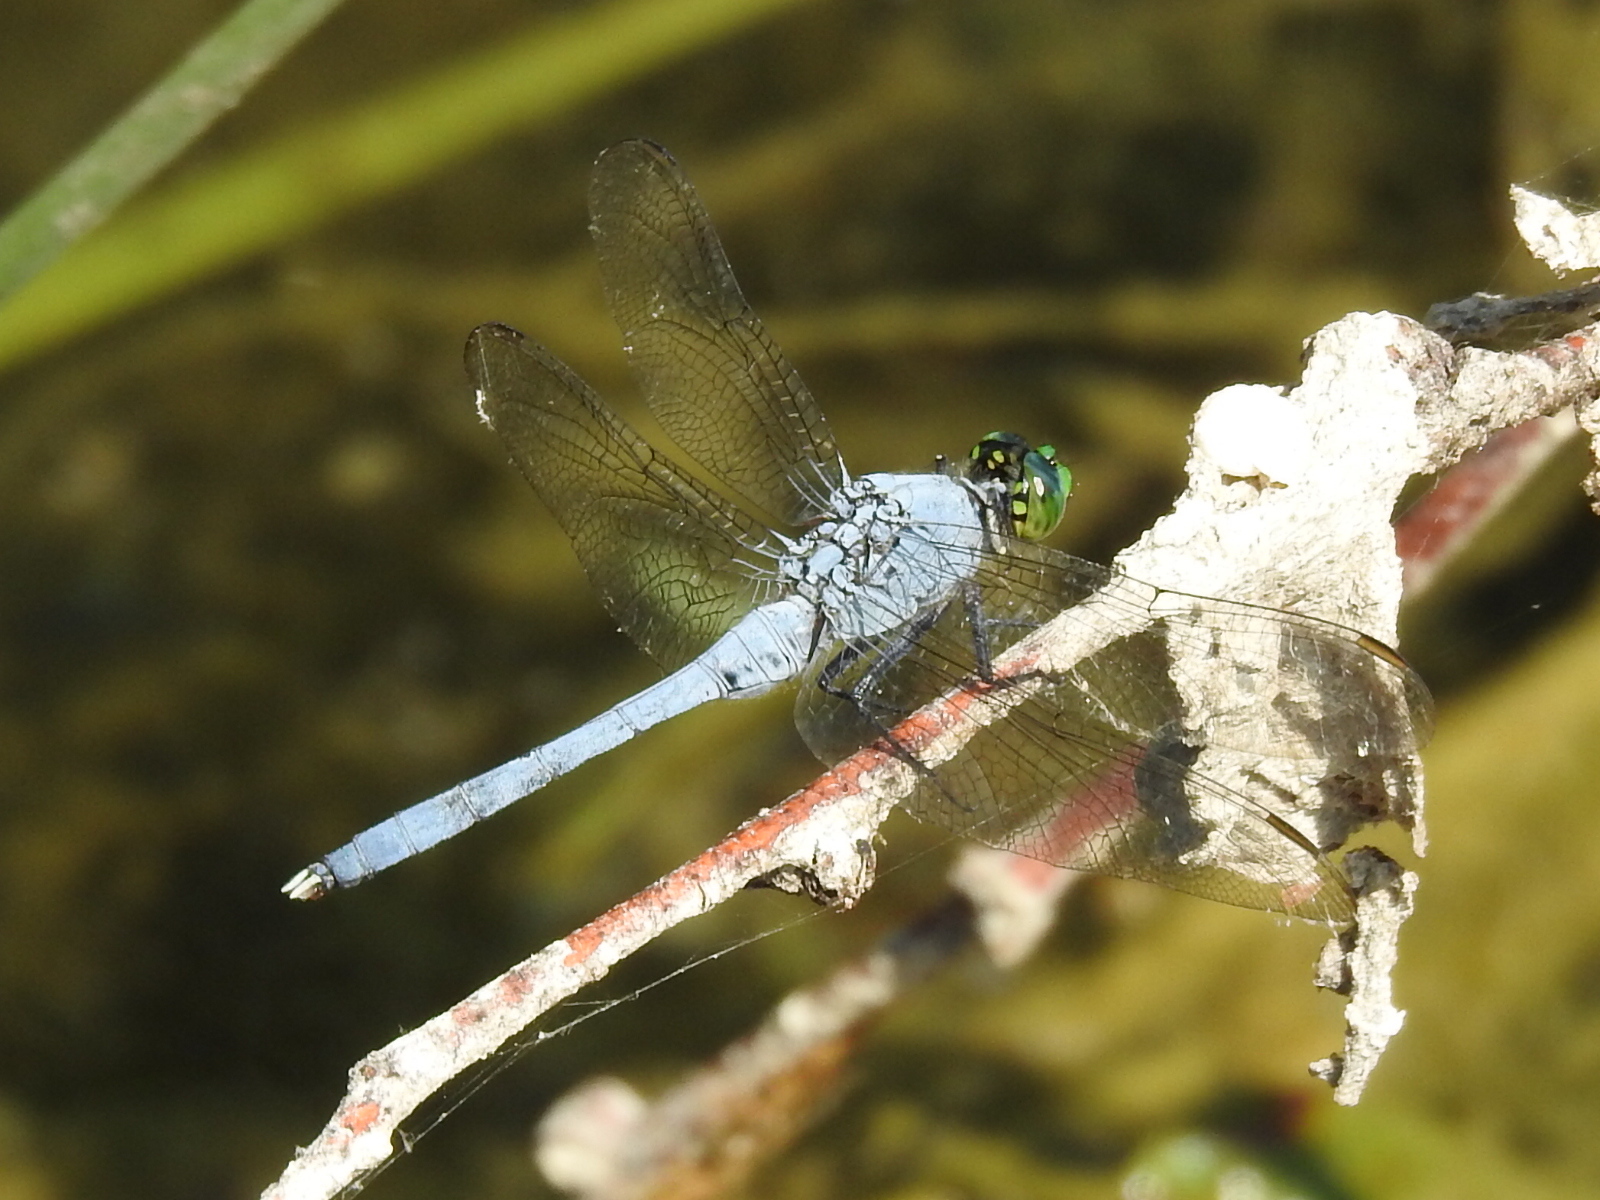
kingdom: Animalia
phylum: Arthropoda
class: Insecta
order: Odonata
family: Libellulidae
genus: Erythemis
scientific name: Erythemis simplicicollis
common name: Eastern pondhawk
